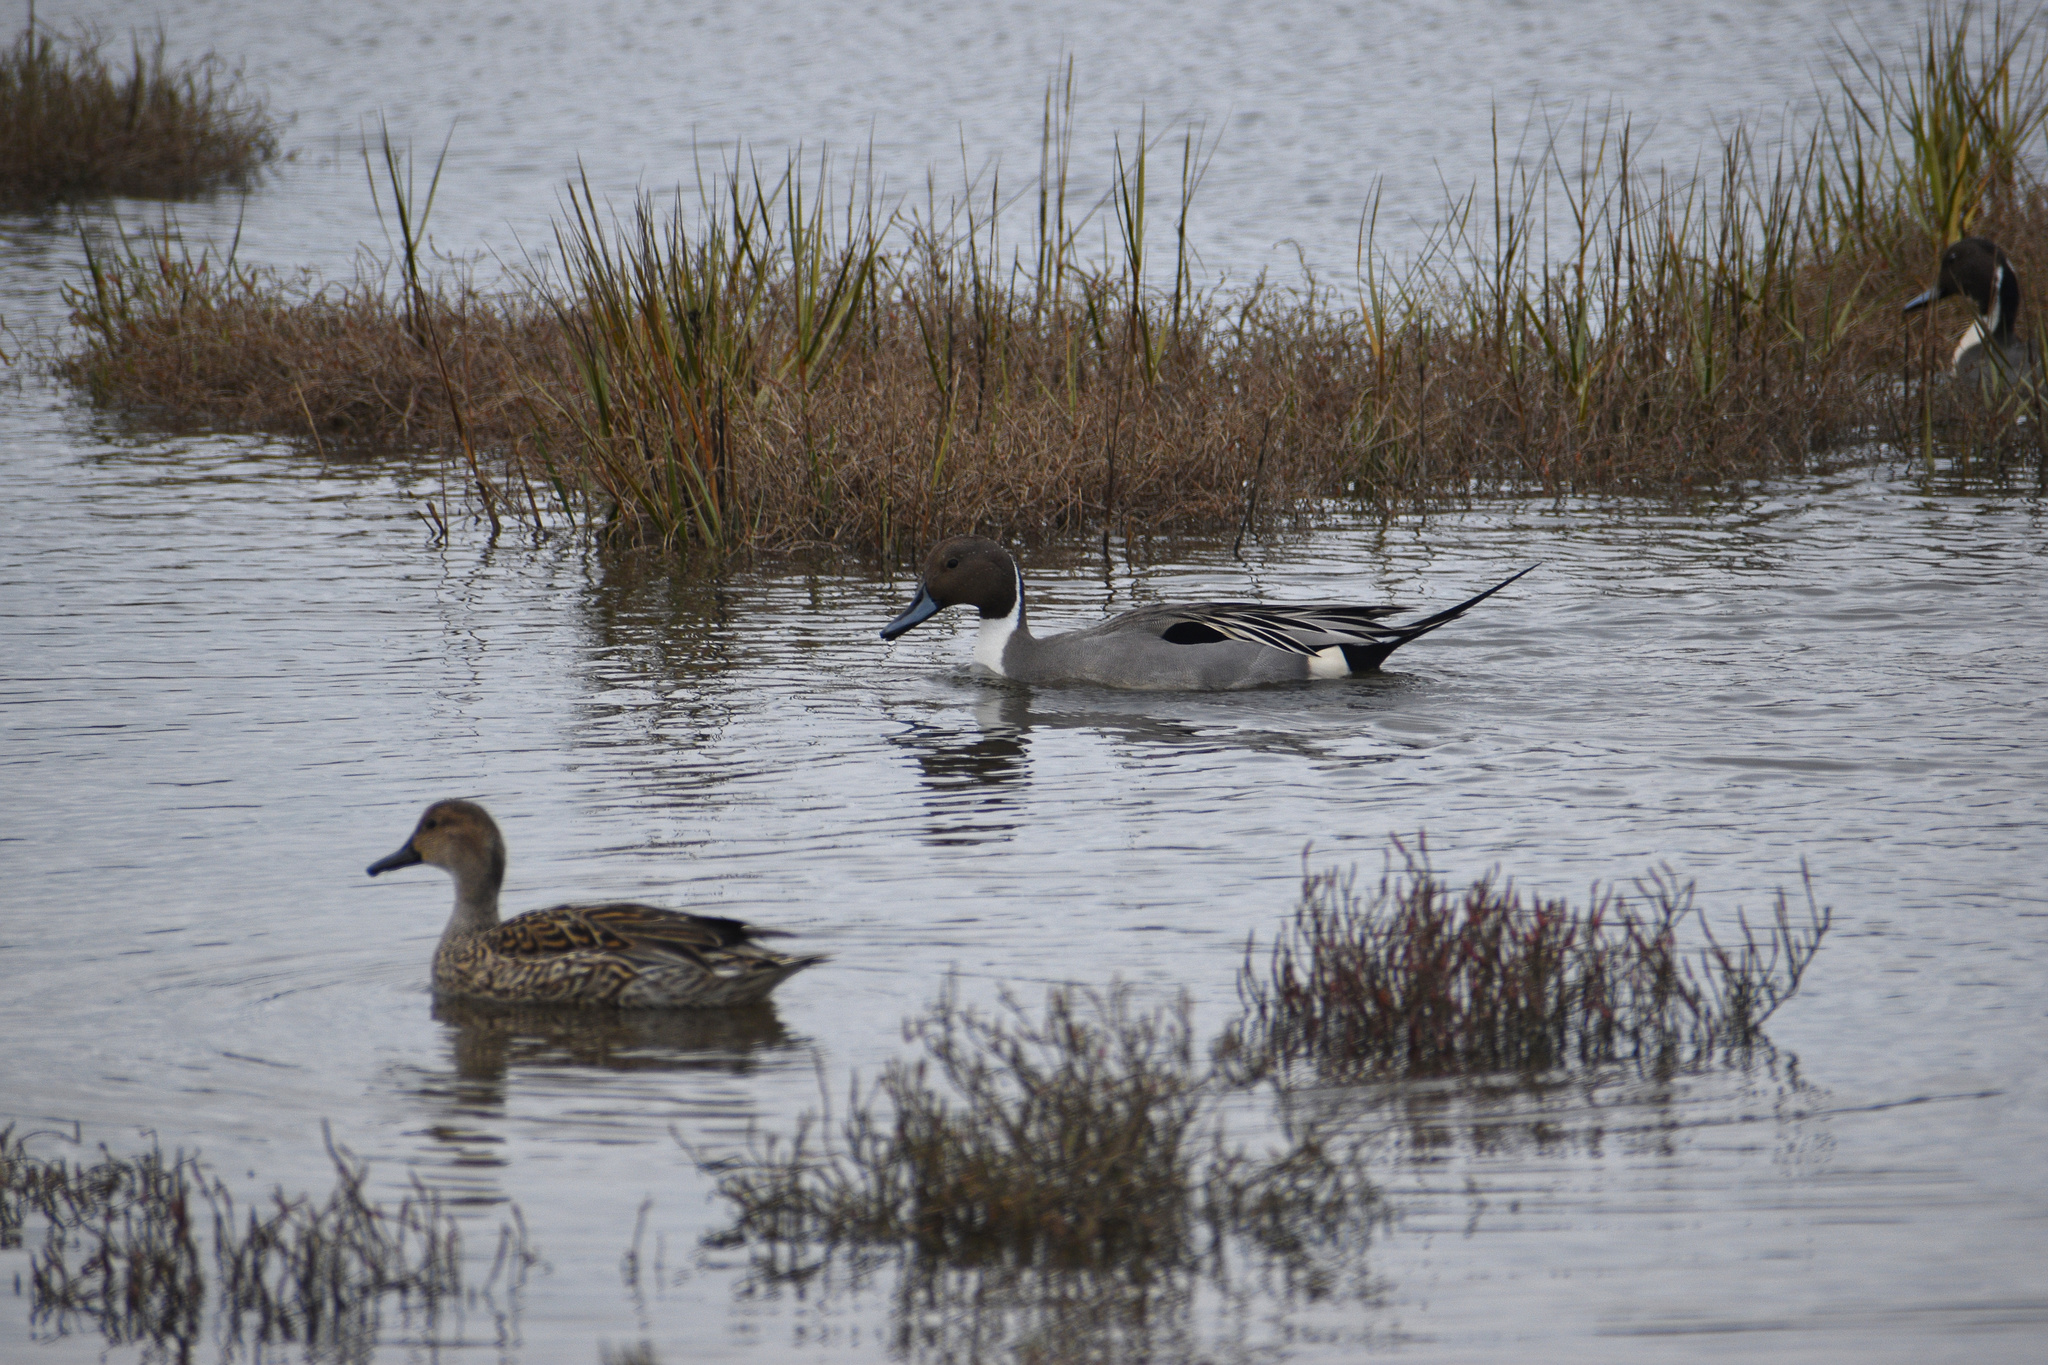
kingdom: Animalia
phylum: Chordata
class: Aves
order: Anseriformes
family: Anatidae
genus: Anas
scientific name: Anas acuta
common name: Northern pintail
